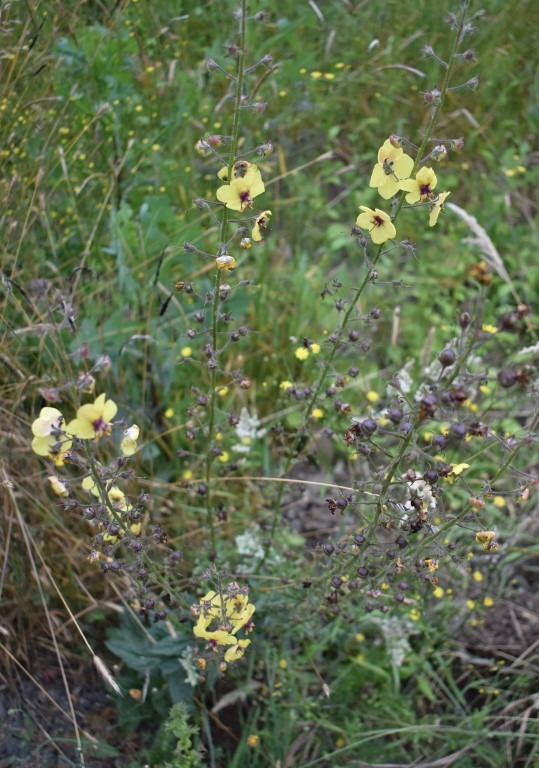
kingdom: Plantae
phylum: Tracheophyta
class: Magnoliopsida
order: Lamiales
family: Scrophulariaceae
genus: Verbascum
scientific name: Verbascum blattaria
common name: Moth mullein
